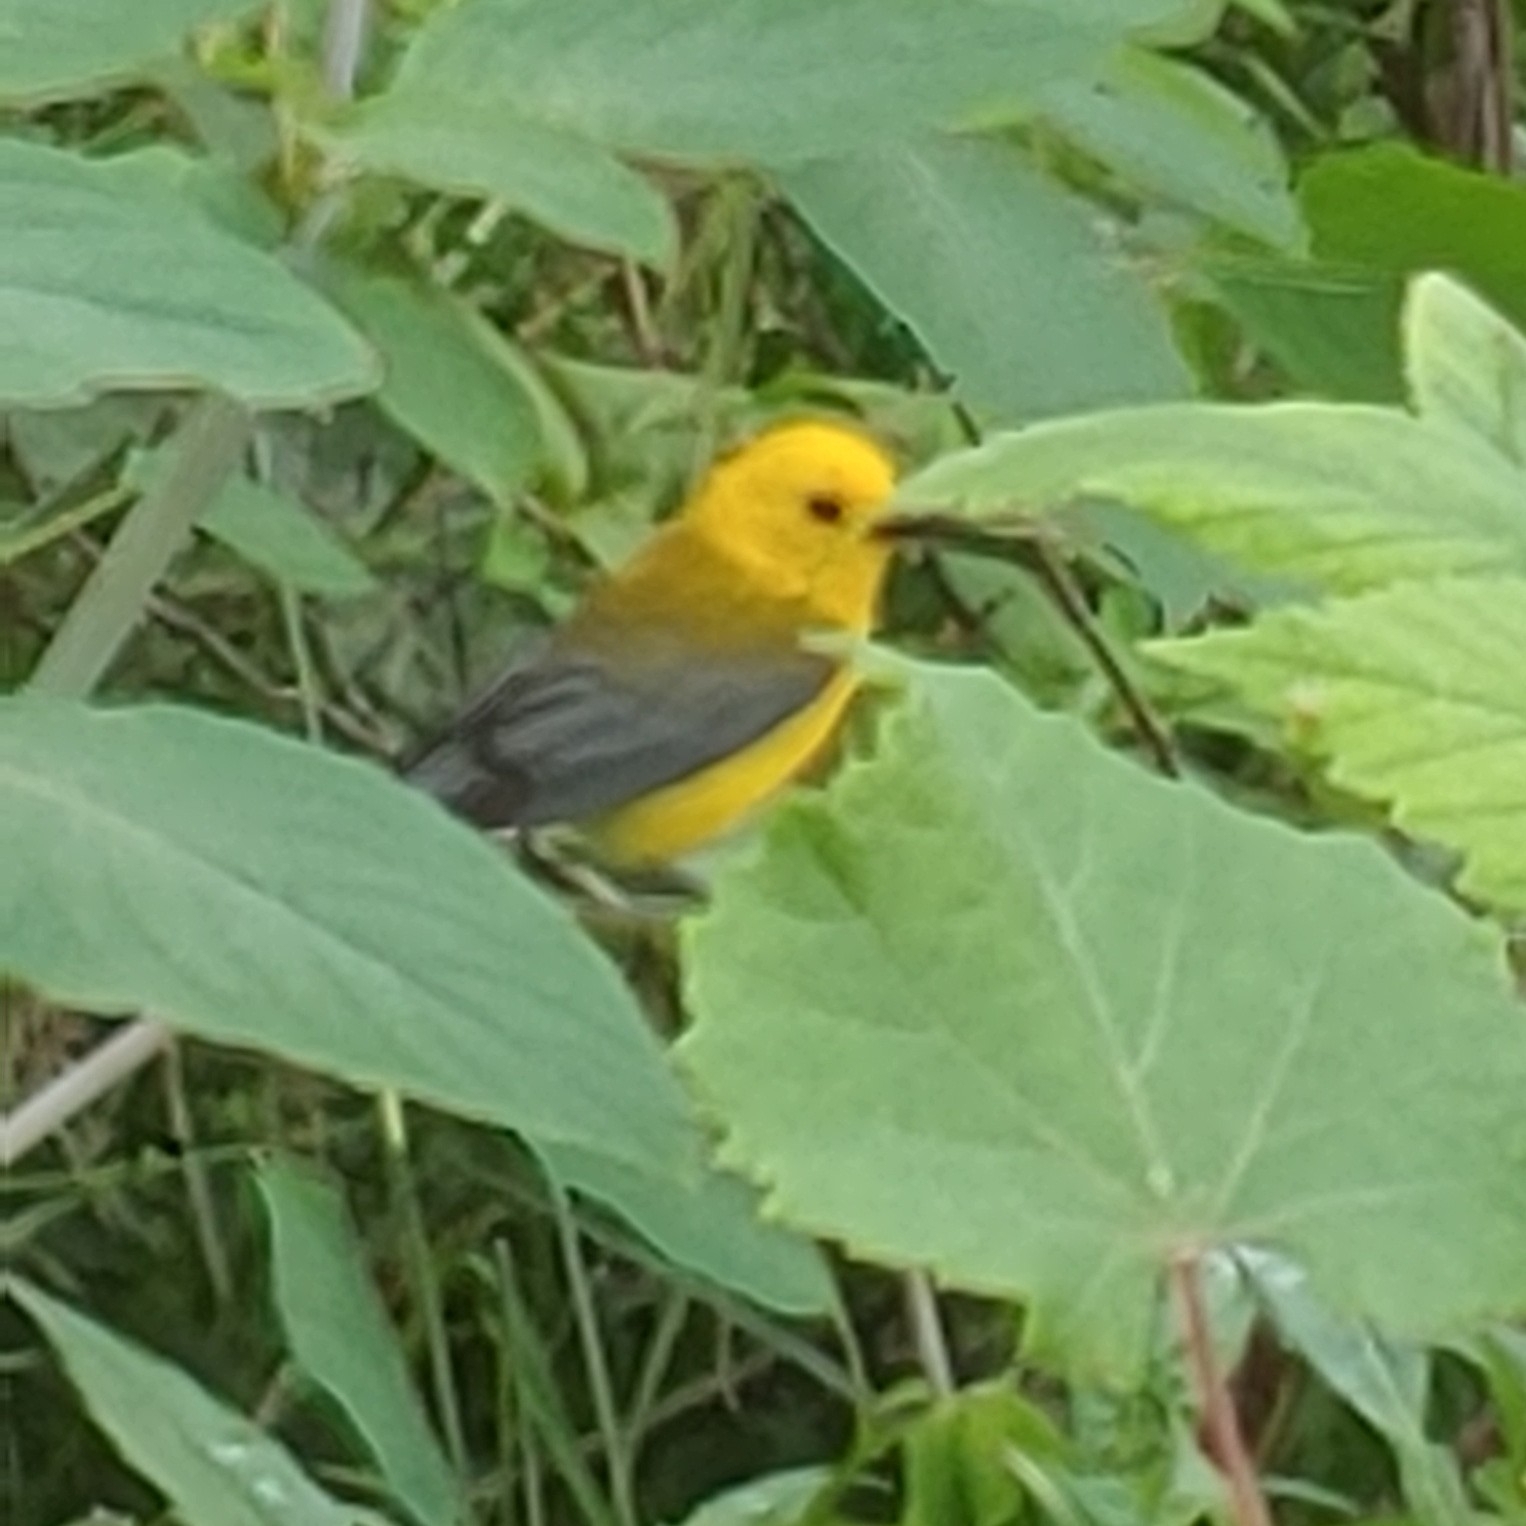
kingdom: Animalia
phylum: Chordata
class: Aves
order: Passeriformes
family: Parulidae
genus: Protonotaria
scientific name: Protonotaria citrea
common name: Prothonotary warbler
